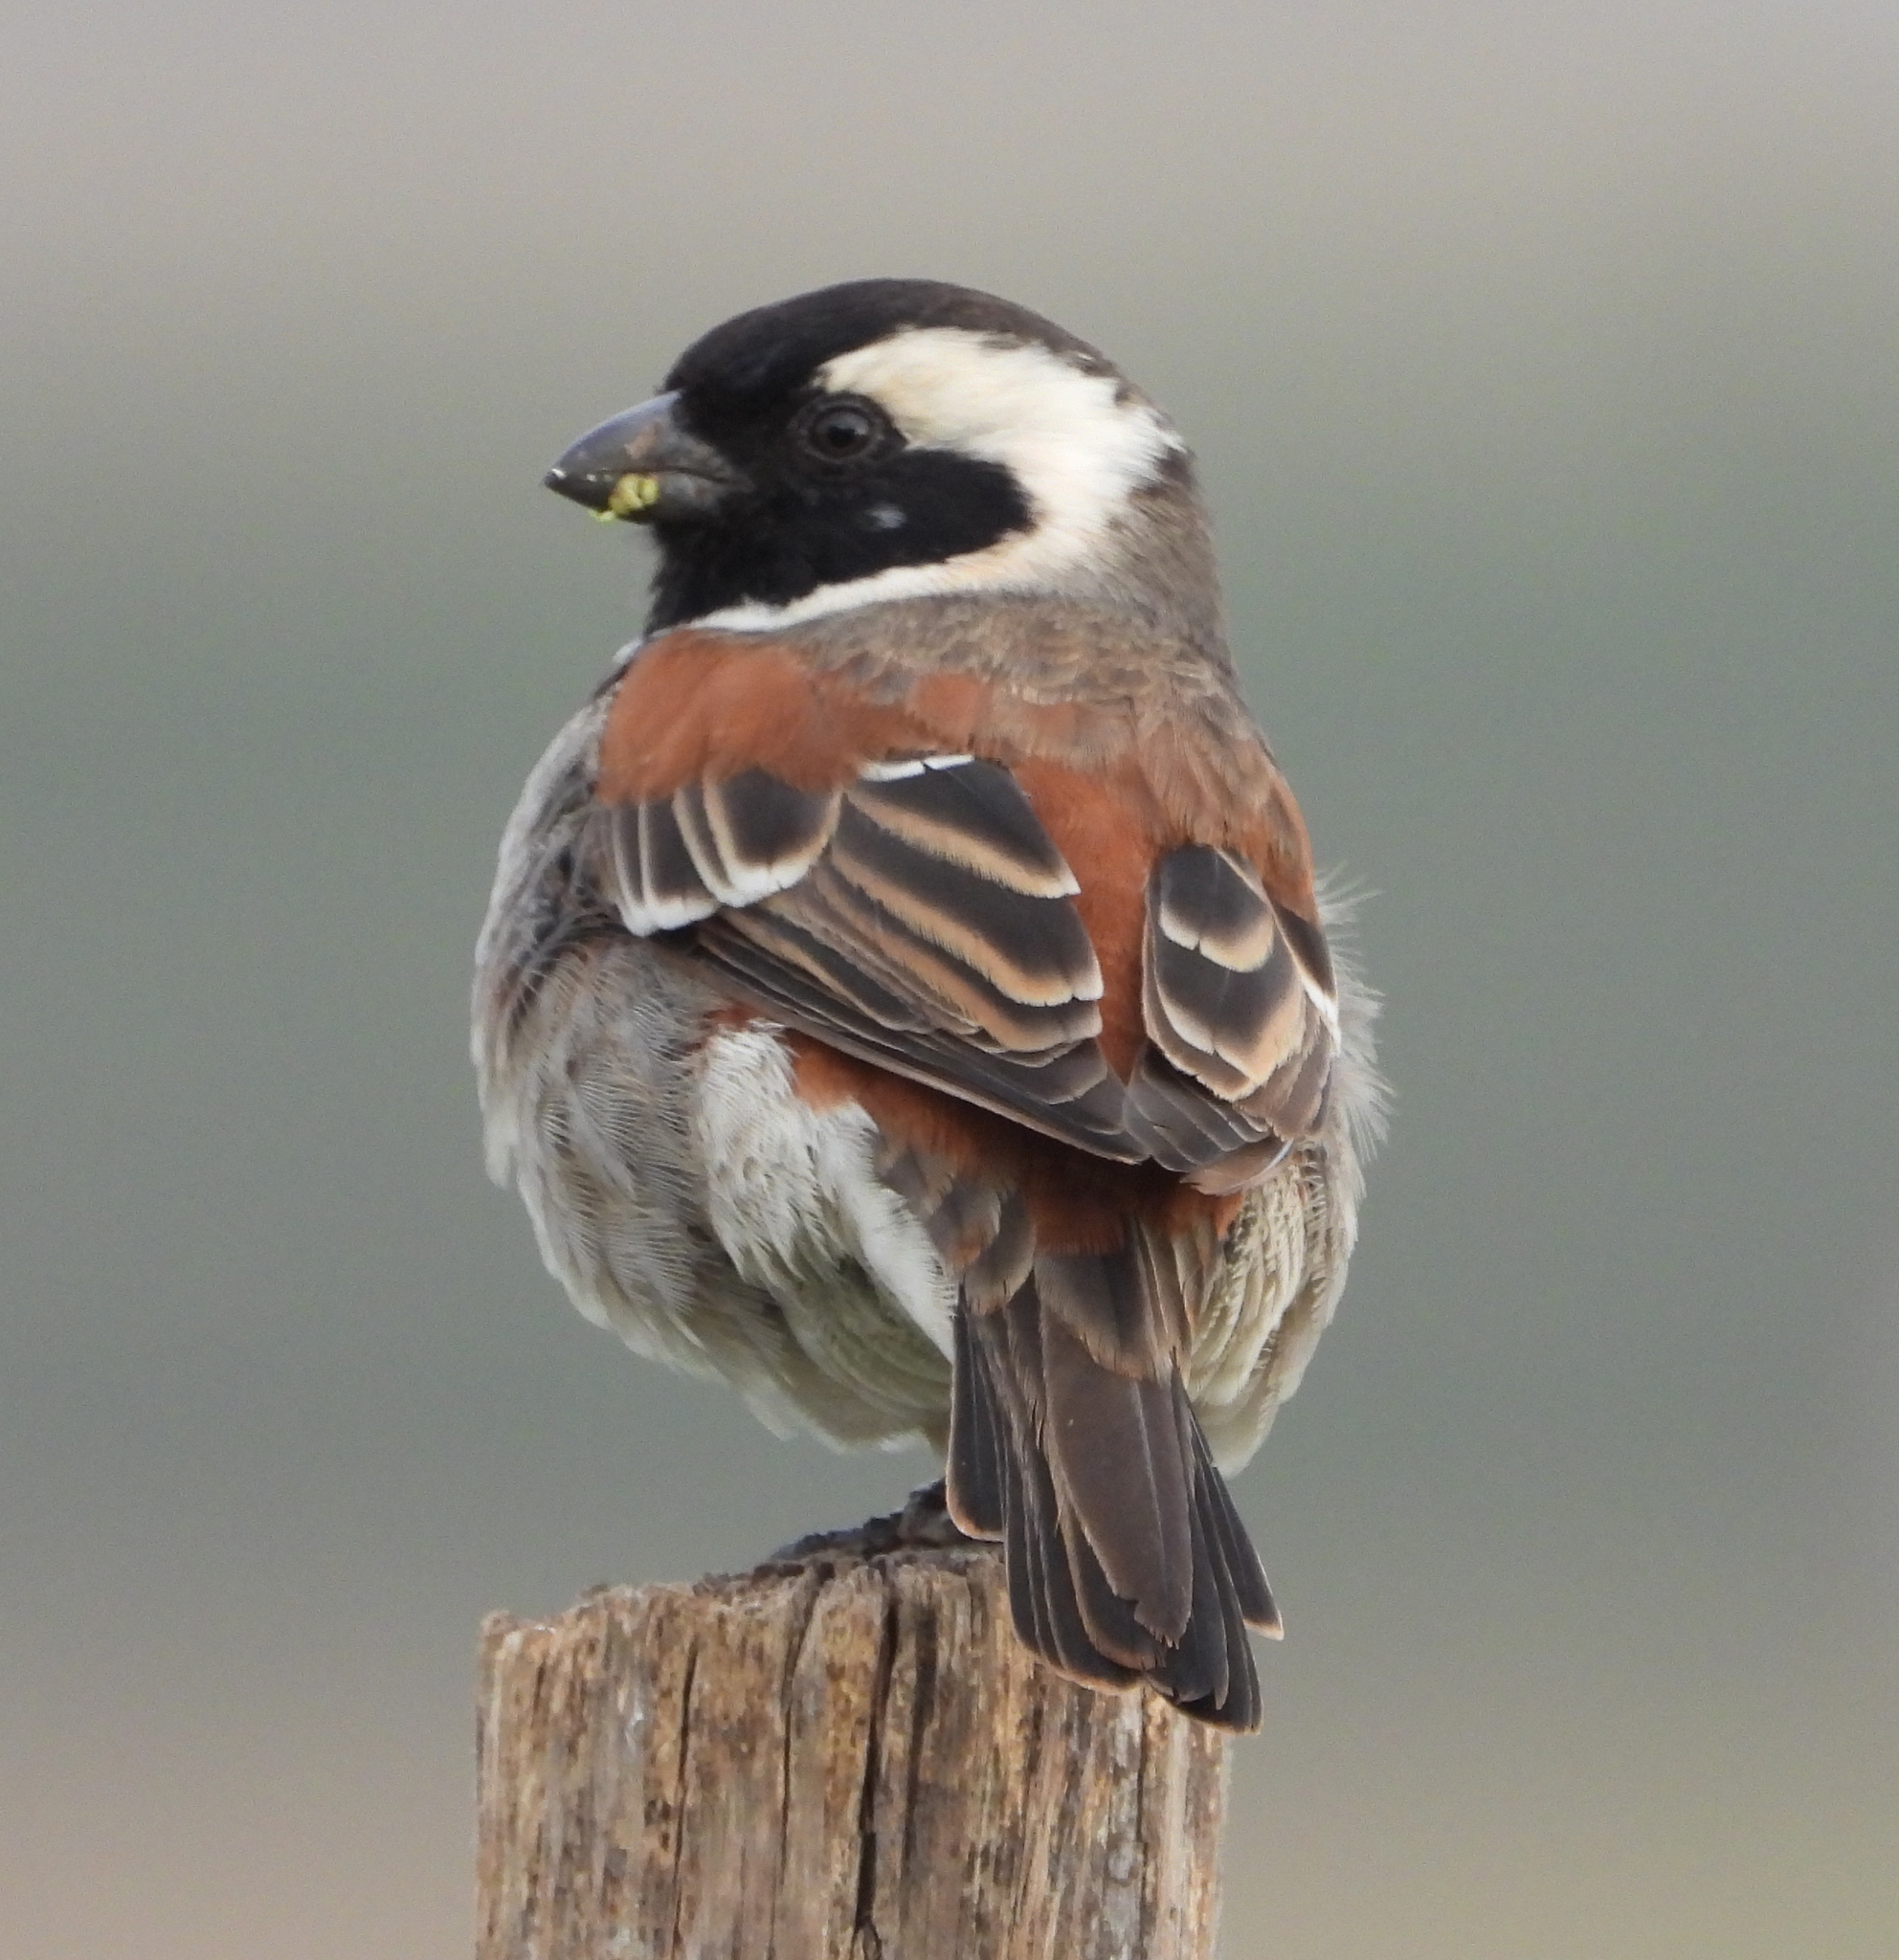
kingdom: Animalia
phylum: Chordata
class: Aves
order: Passeriformes
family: Passeridae
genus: Passer
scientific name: Passer melanurus
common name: Cape sparrow
